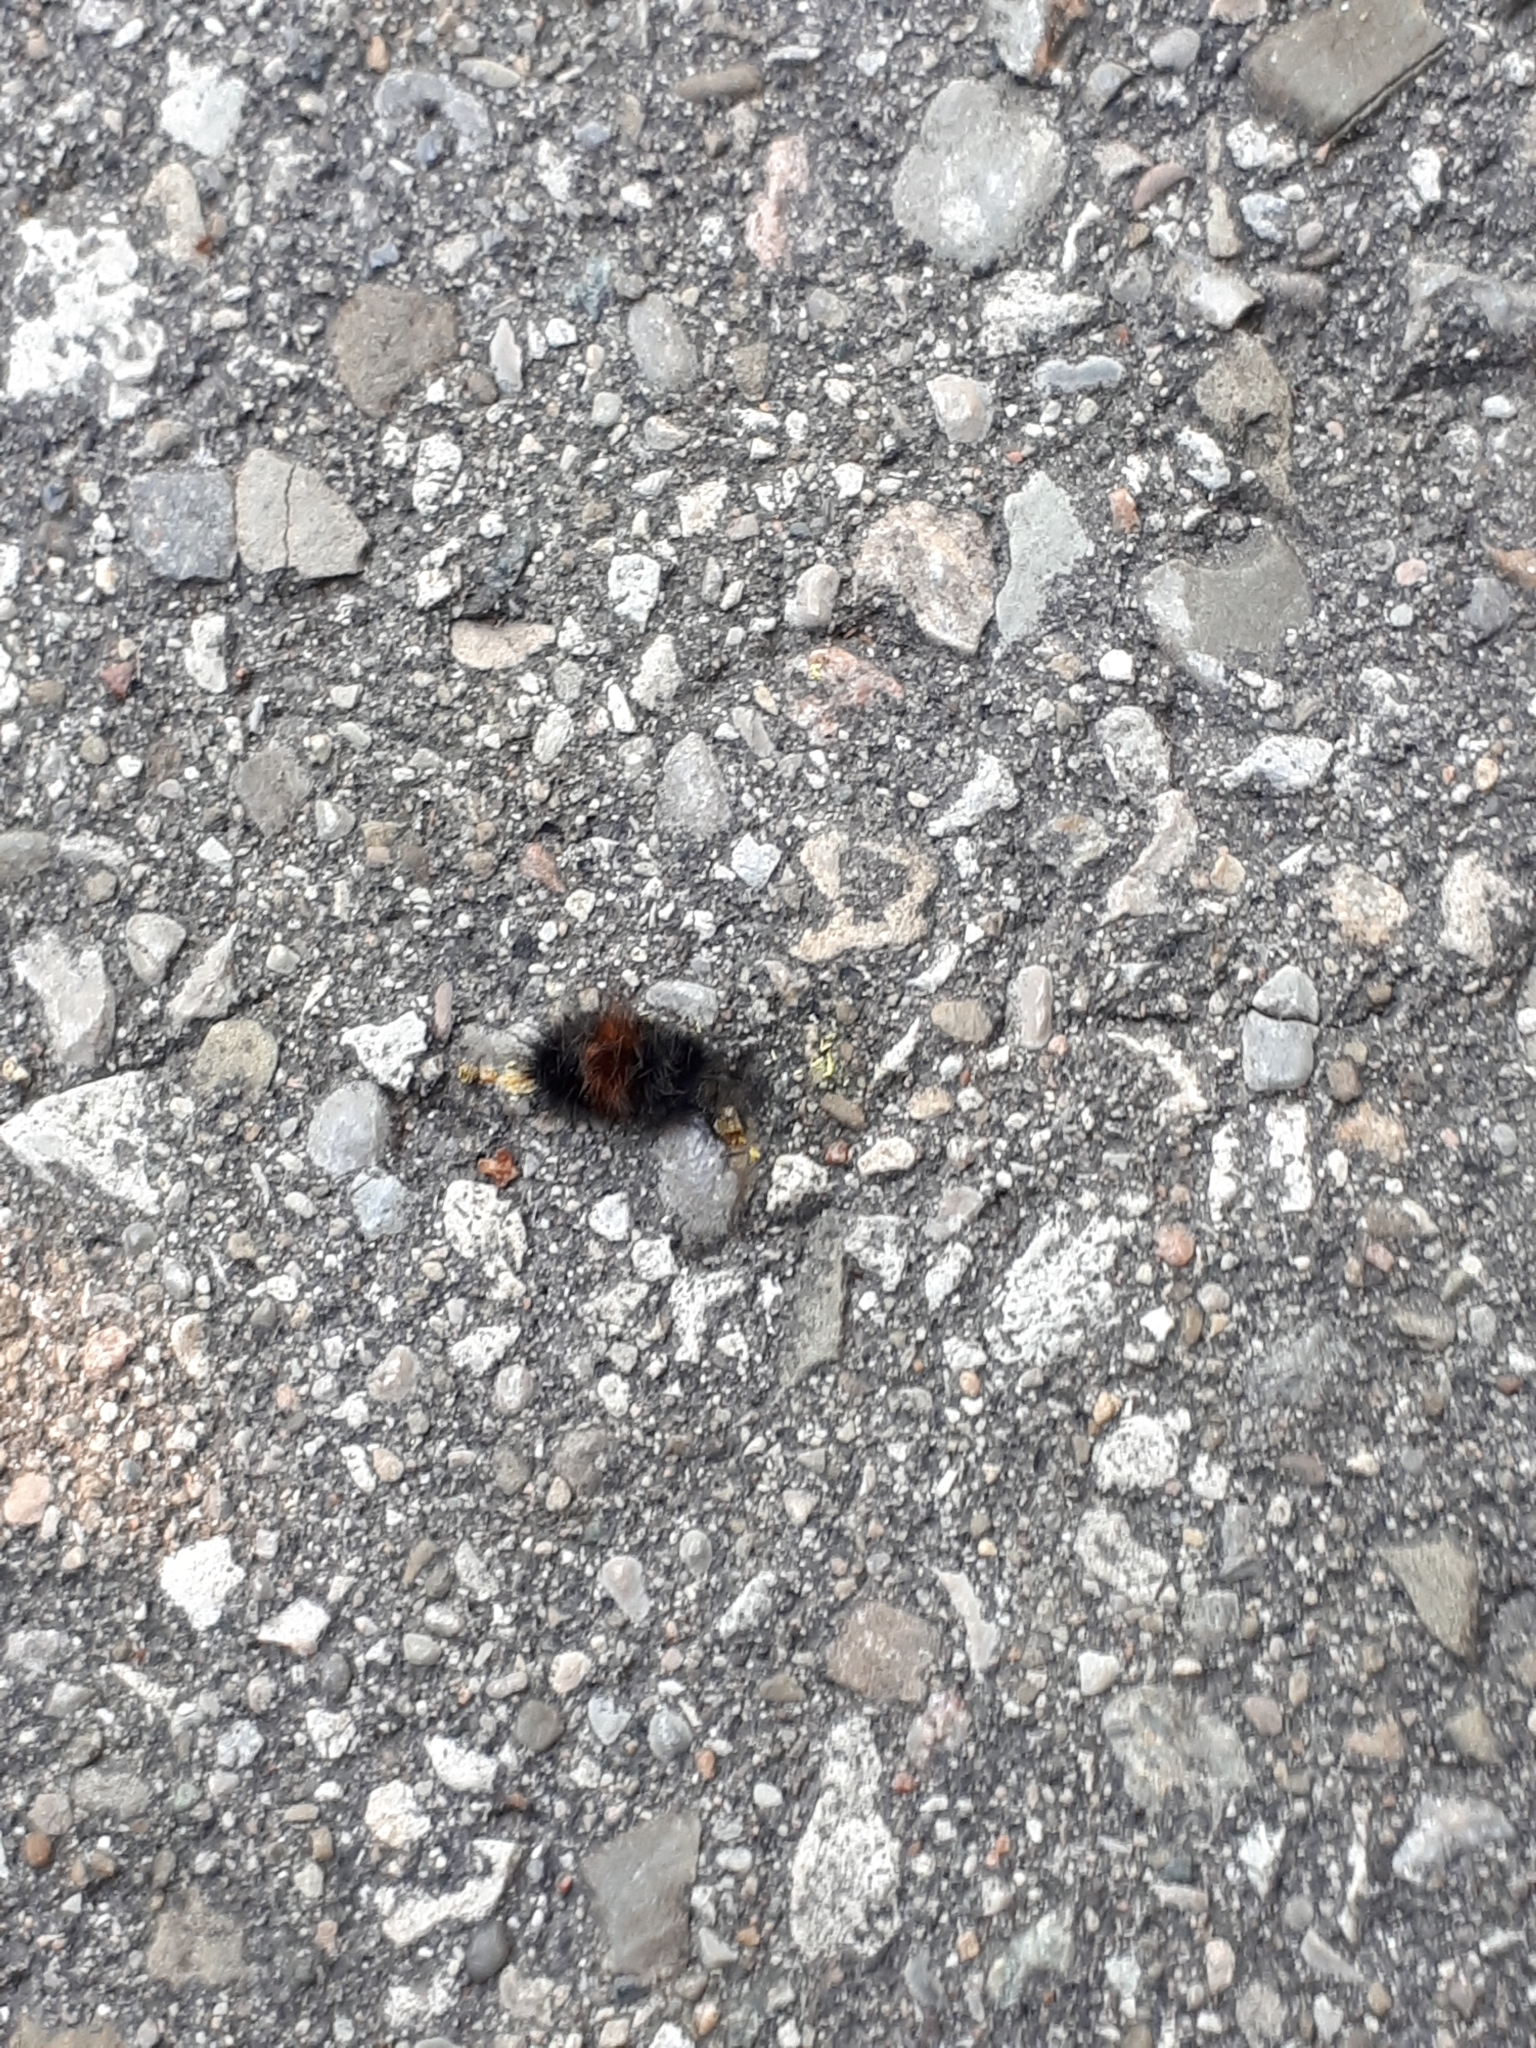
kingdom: Animalia
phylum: Arthropoda
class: Insecta
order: Lepidoptera
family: Erebidae
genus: Pyrrharctia
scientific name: Pyrrharctia isabella
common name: Isabella tiger moth
